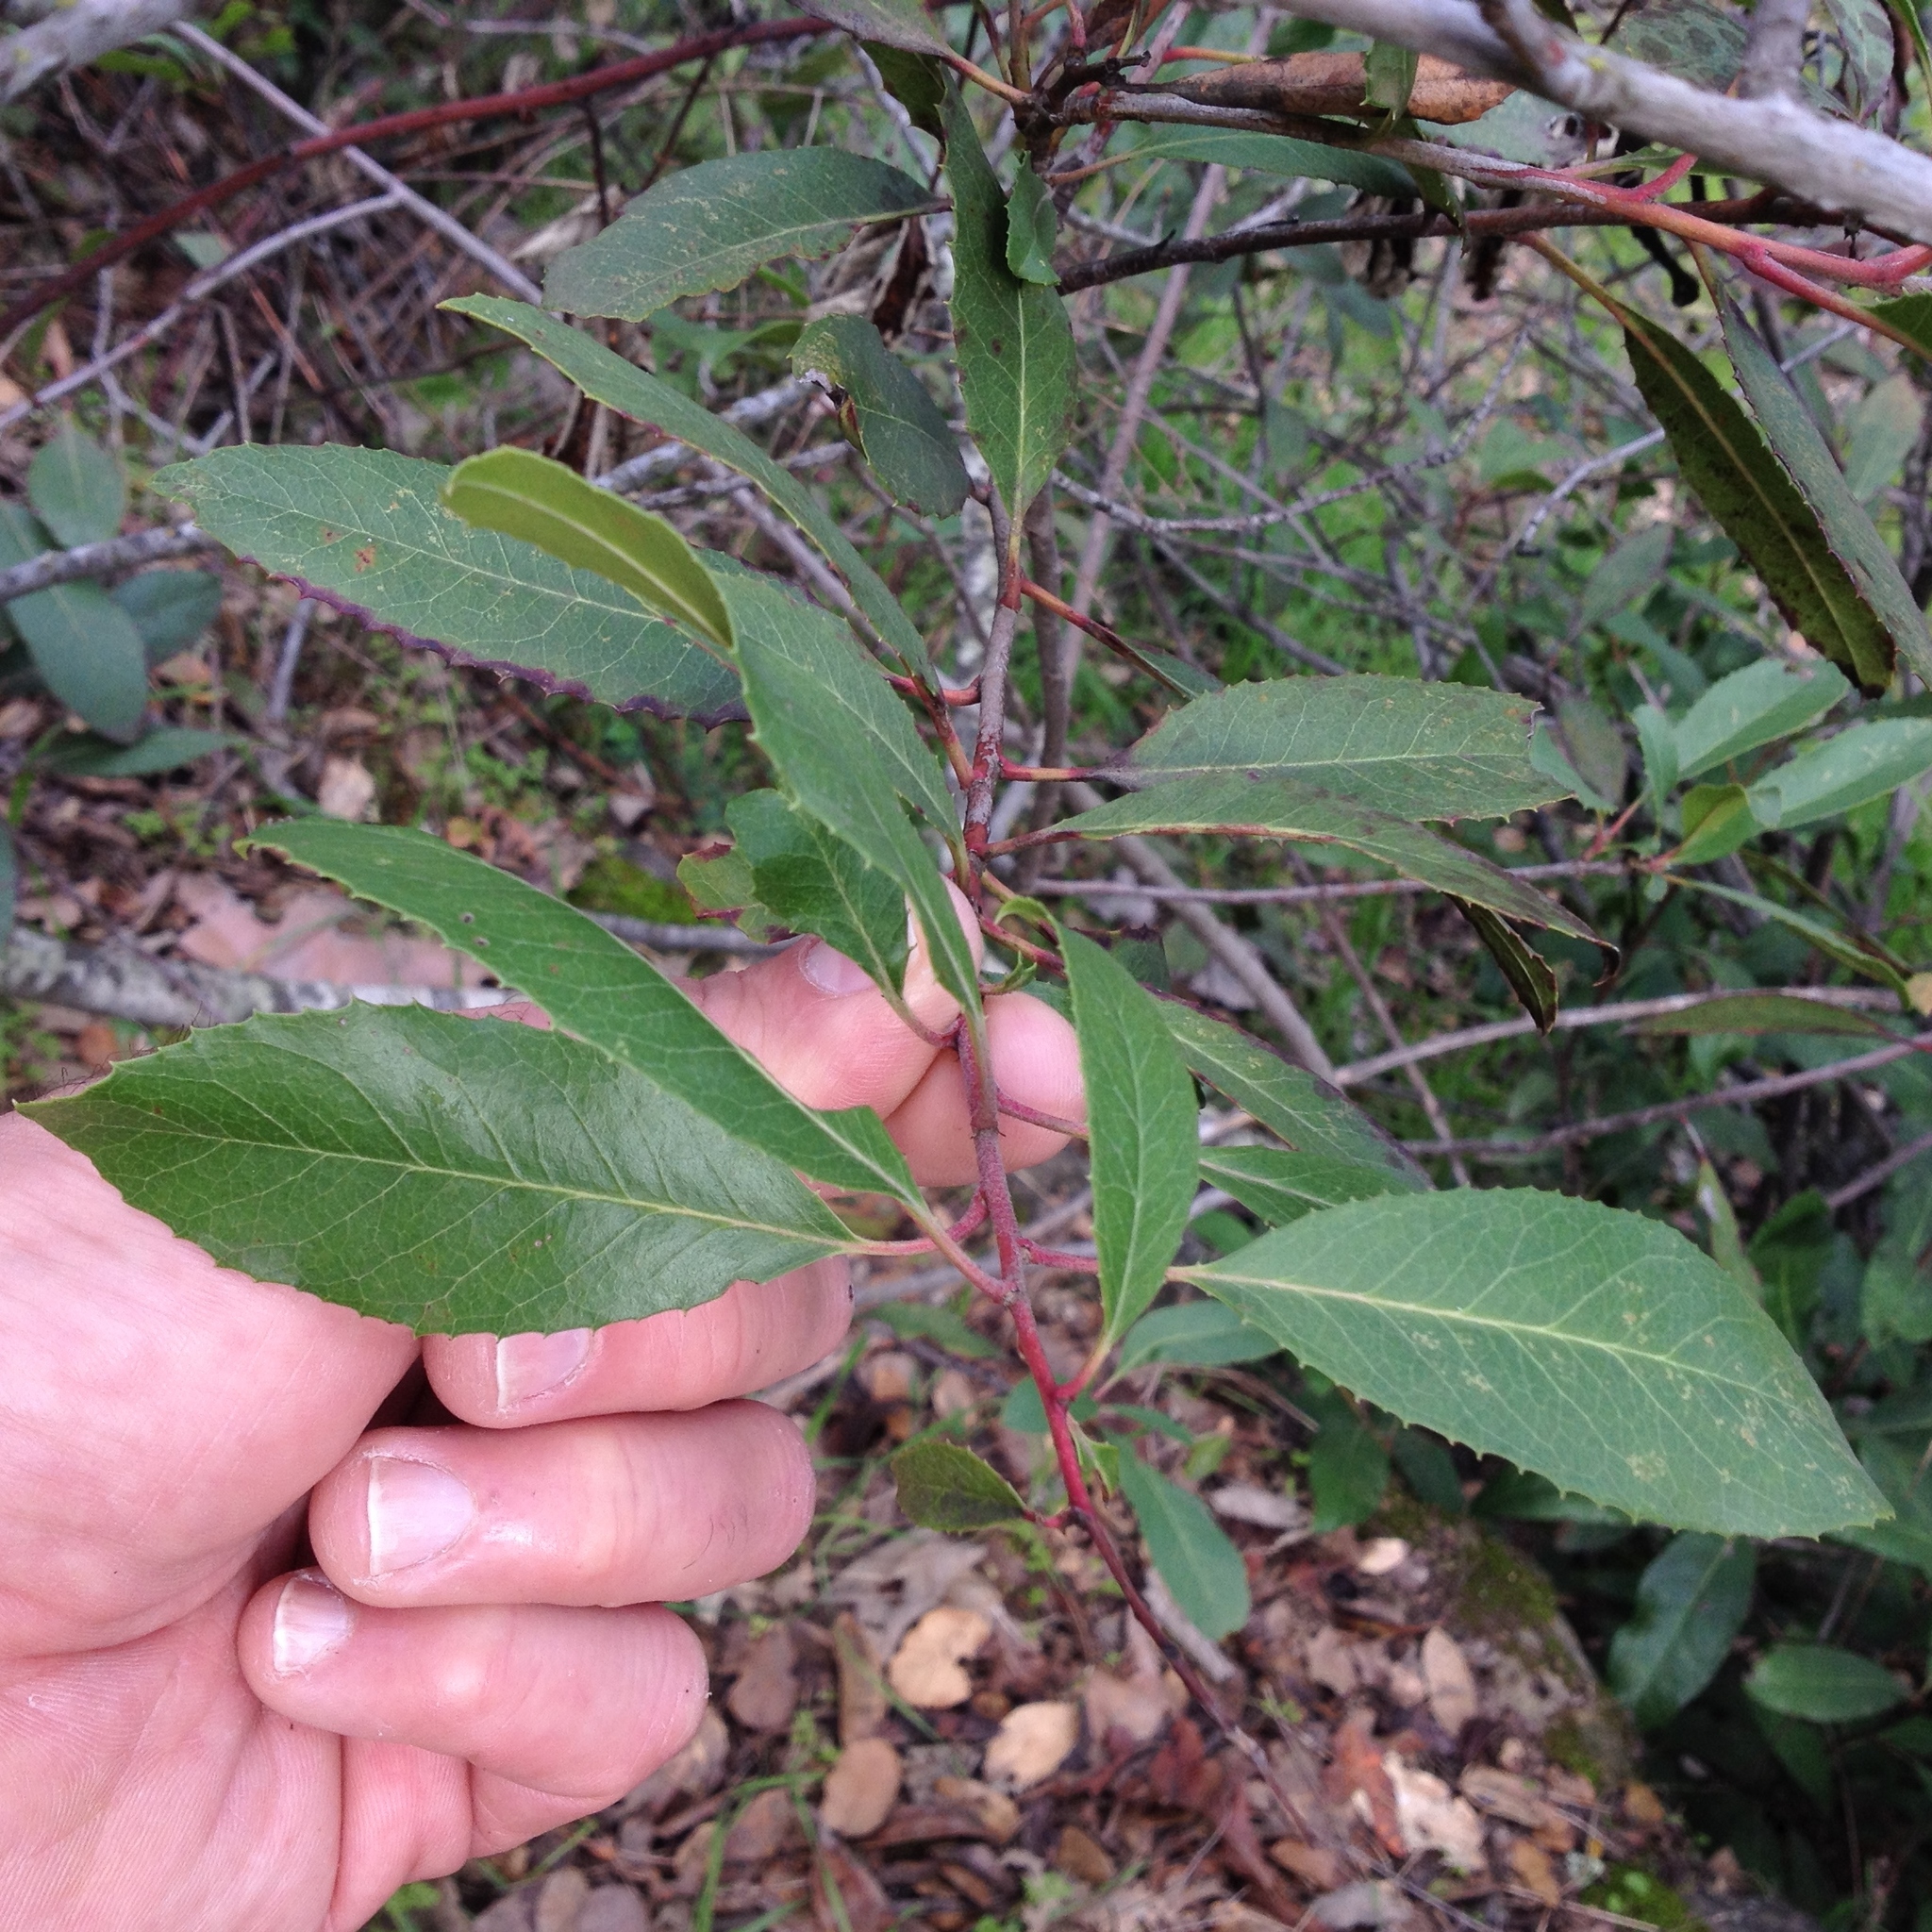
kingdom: Plantae
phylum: Tracheophyta
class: Magnoliopsida
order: Rosales
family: Rosaceae
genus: Heteromeles
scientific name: Heteromeles arbutifolia
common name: California-holly
